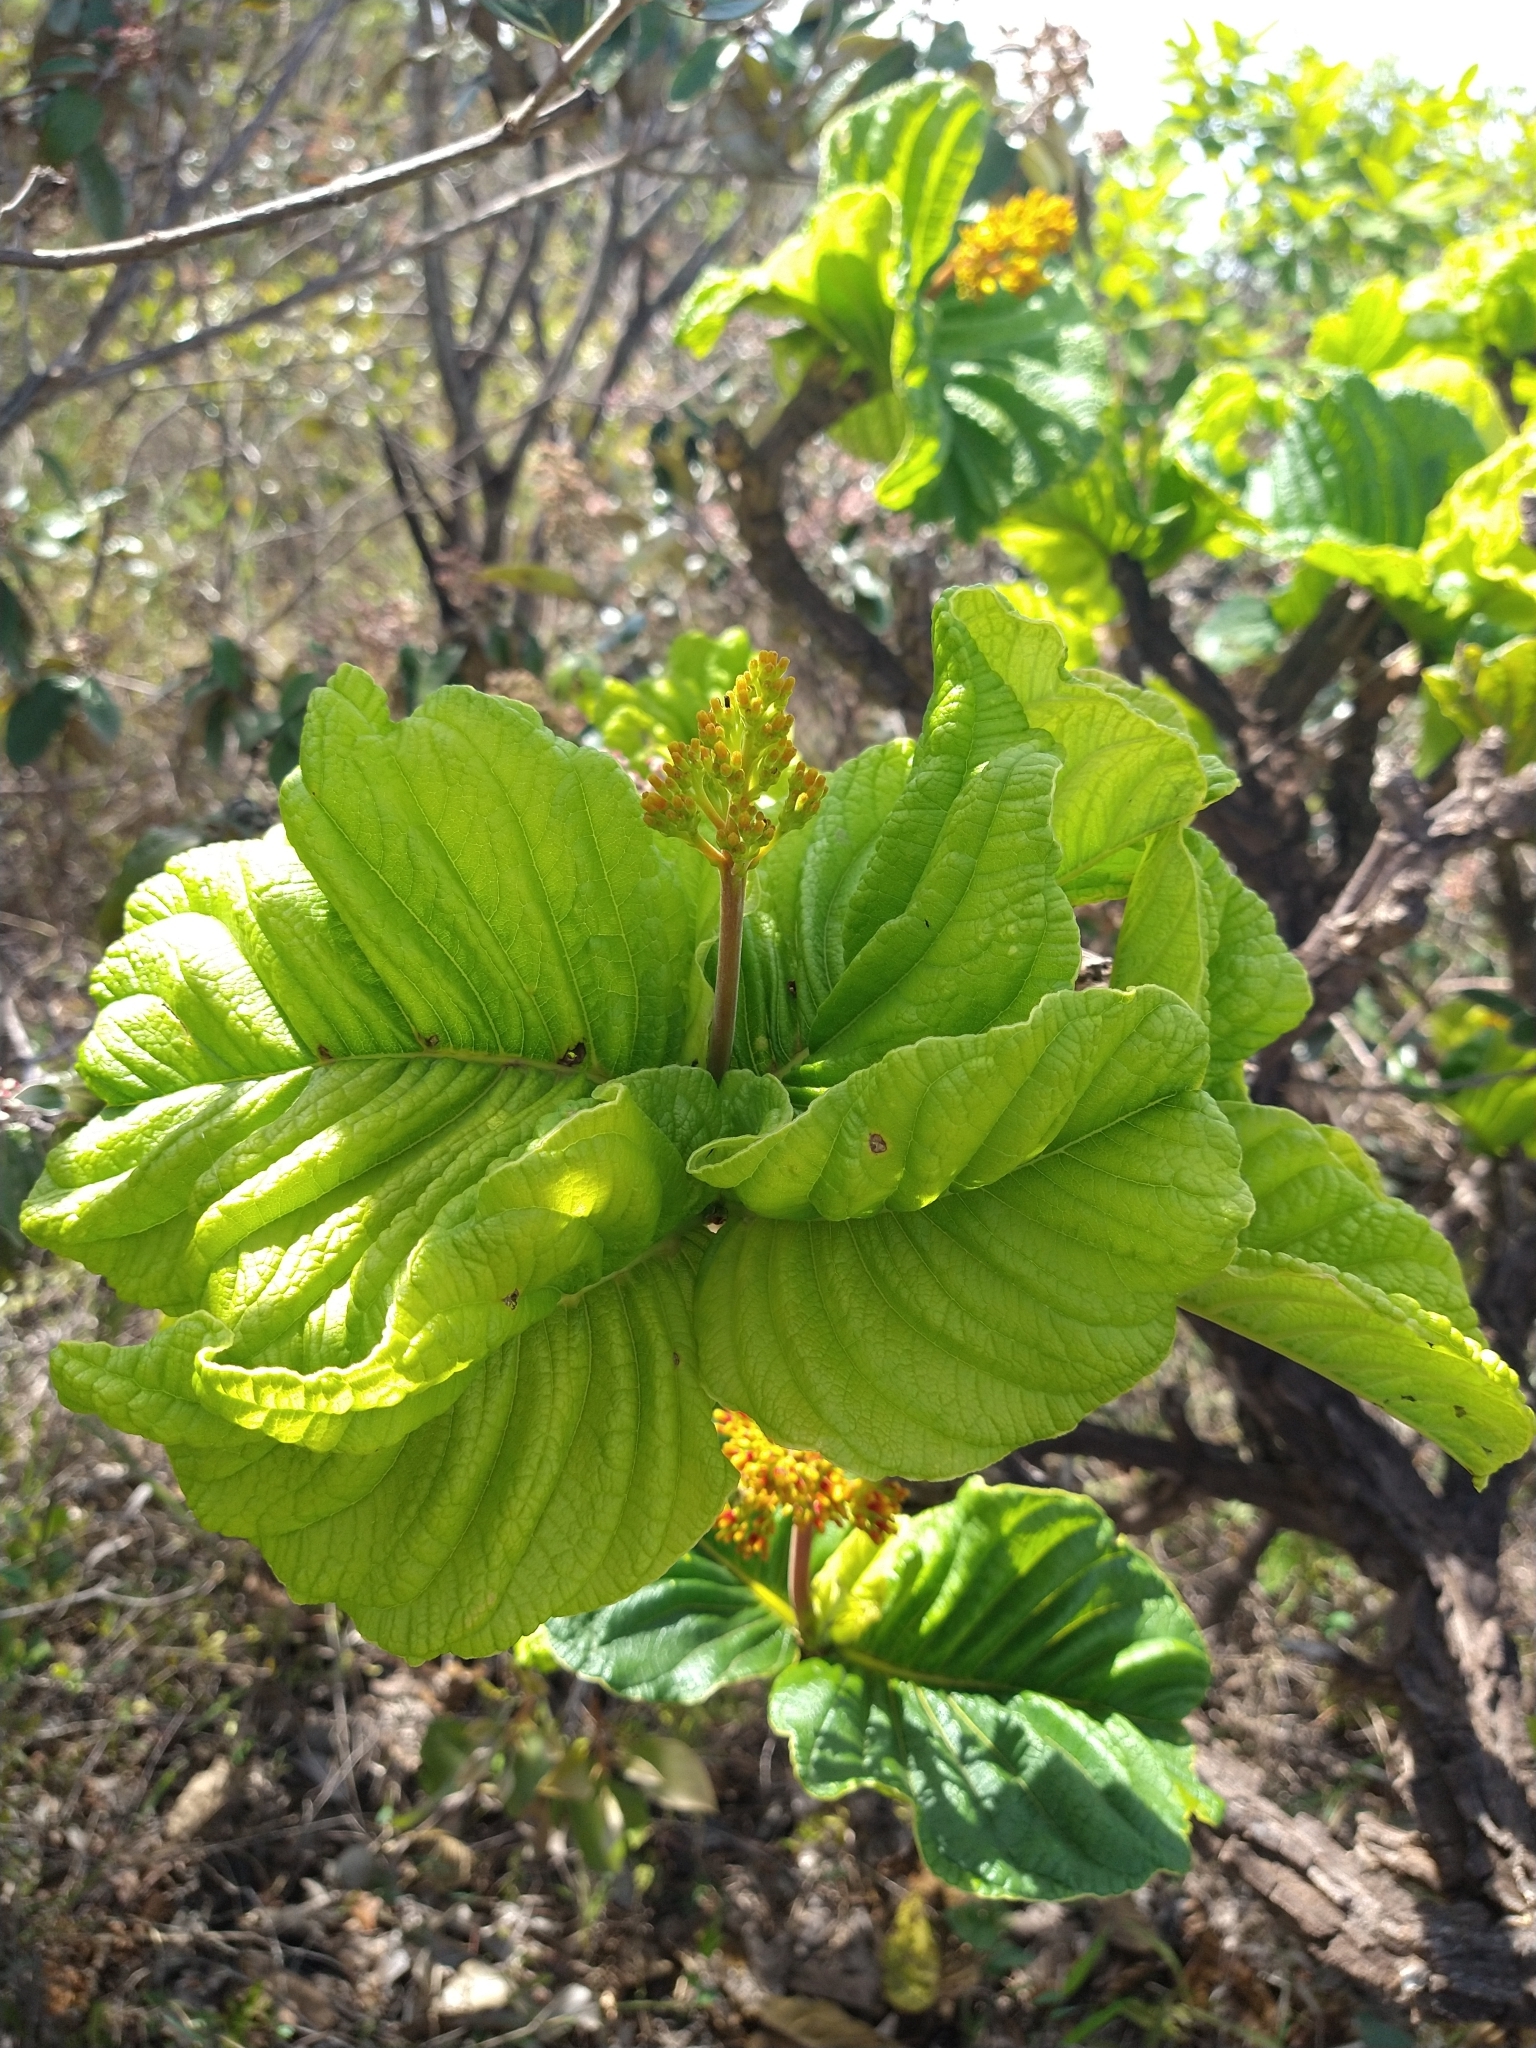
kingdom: Plantae
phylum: Tracheophyta
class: Magnoliopsida
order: Gentianales
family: Rubiaceae
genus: Palicourea
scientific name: Palicourea rigida
